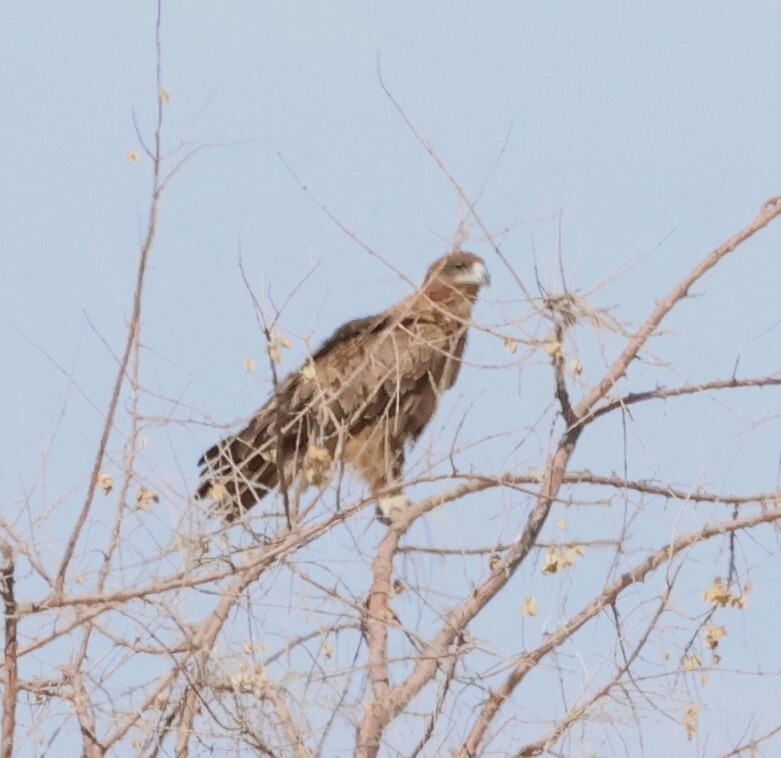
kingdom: Animalia
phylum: Chordata
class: Aves
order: Accipitriformes
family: Accipitridae
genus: Aquila
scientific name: Aquila rapax
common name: Tawny eagle
